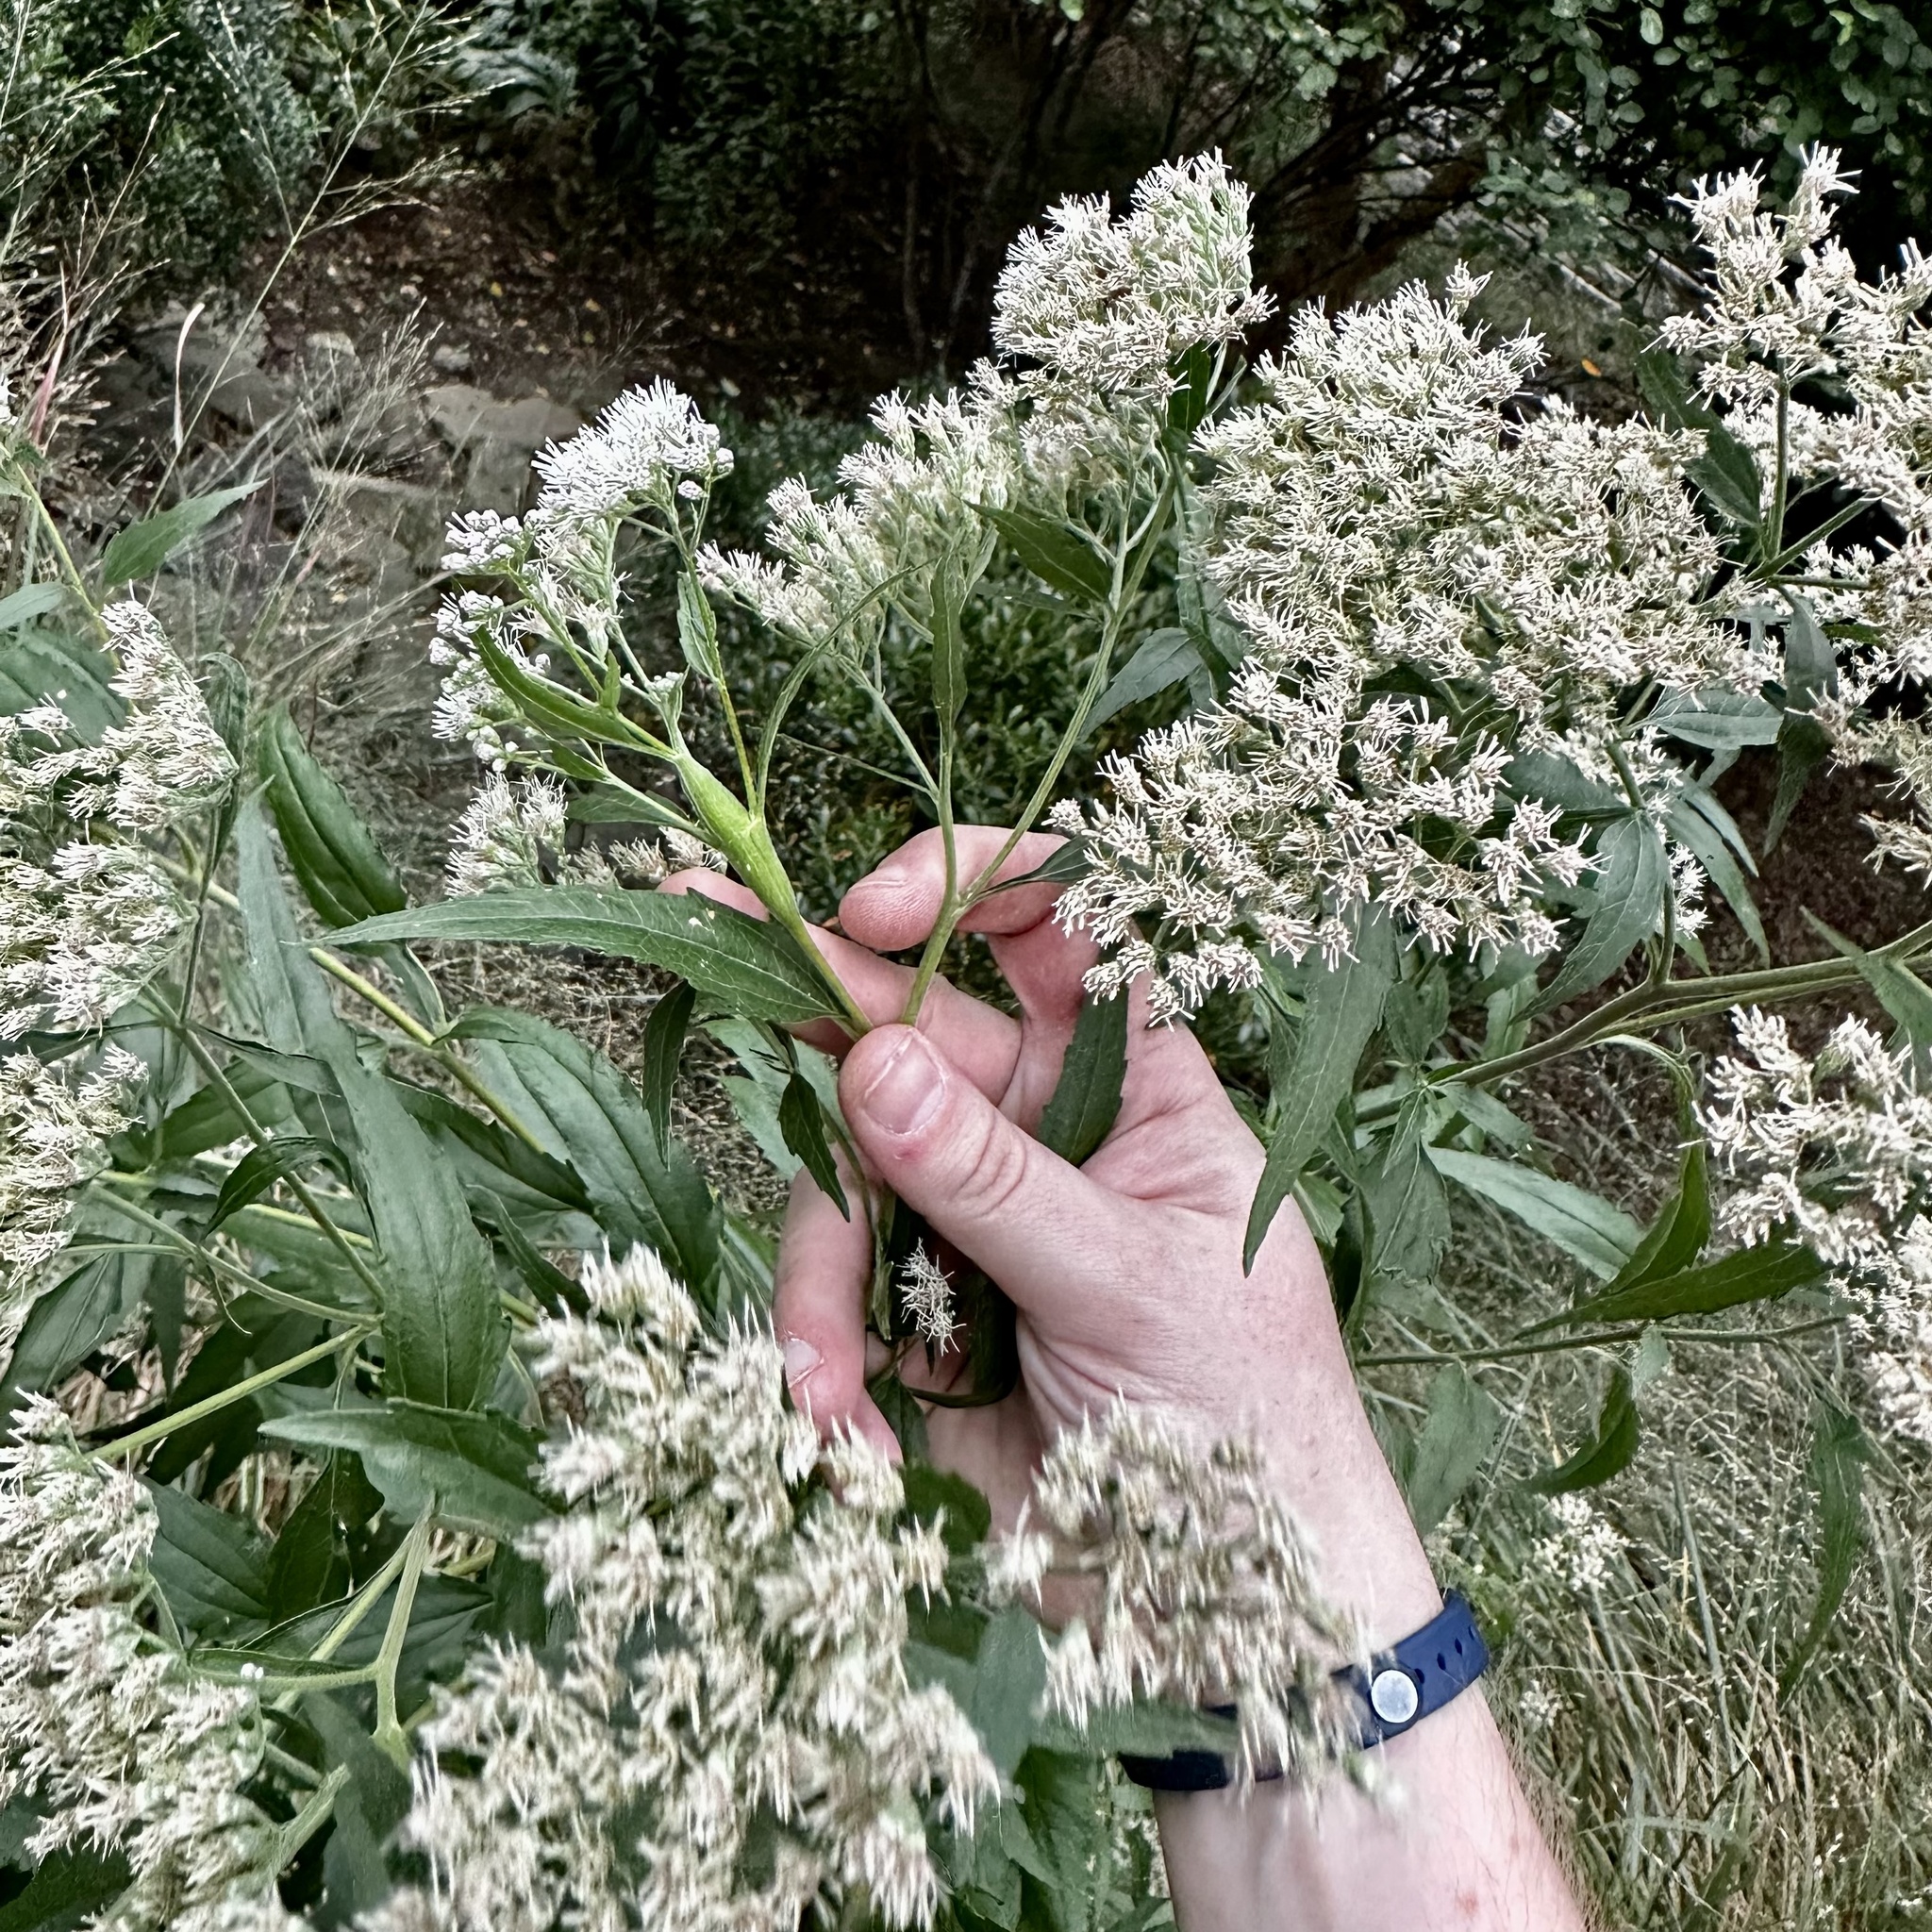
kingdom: Animalia
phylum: Arthropoda
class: Insecta
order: Diptera
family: Cecidomyiidae
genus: Neolasioptera
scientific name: Neolasioptera perfoliata
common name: Boneset stem midge
